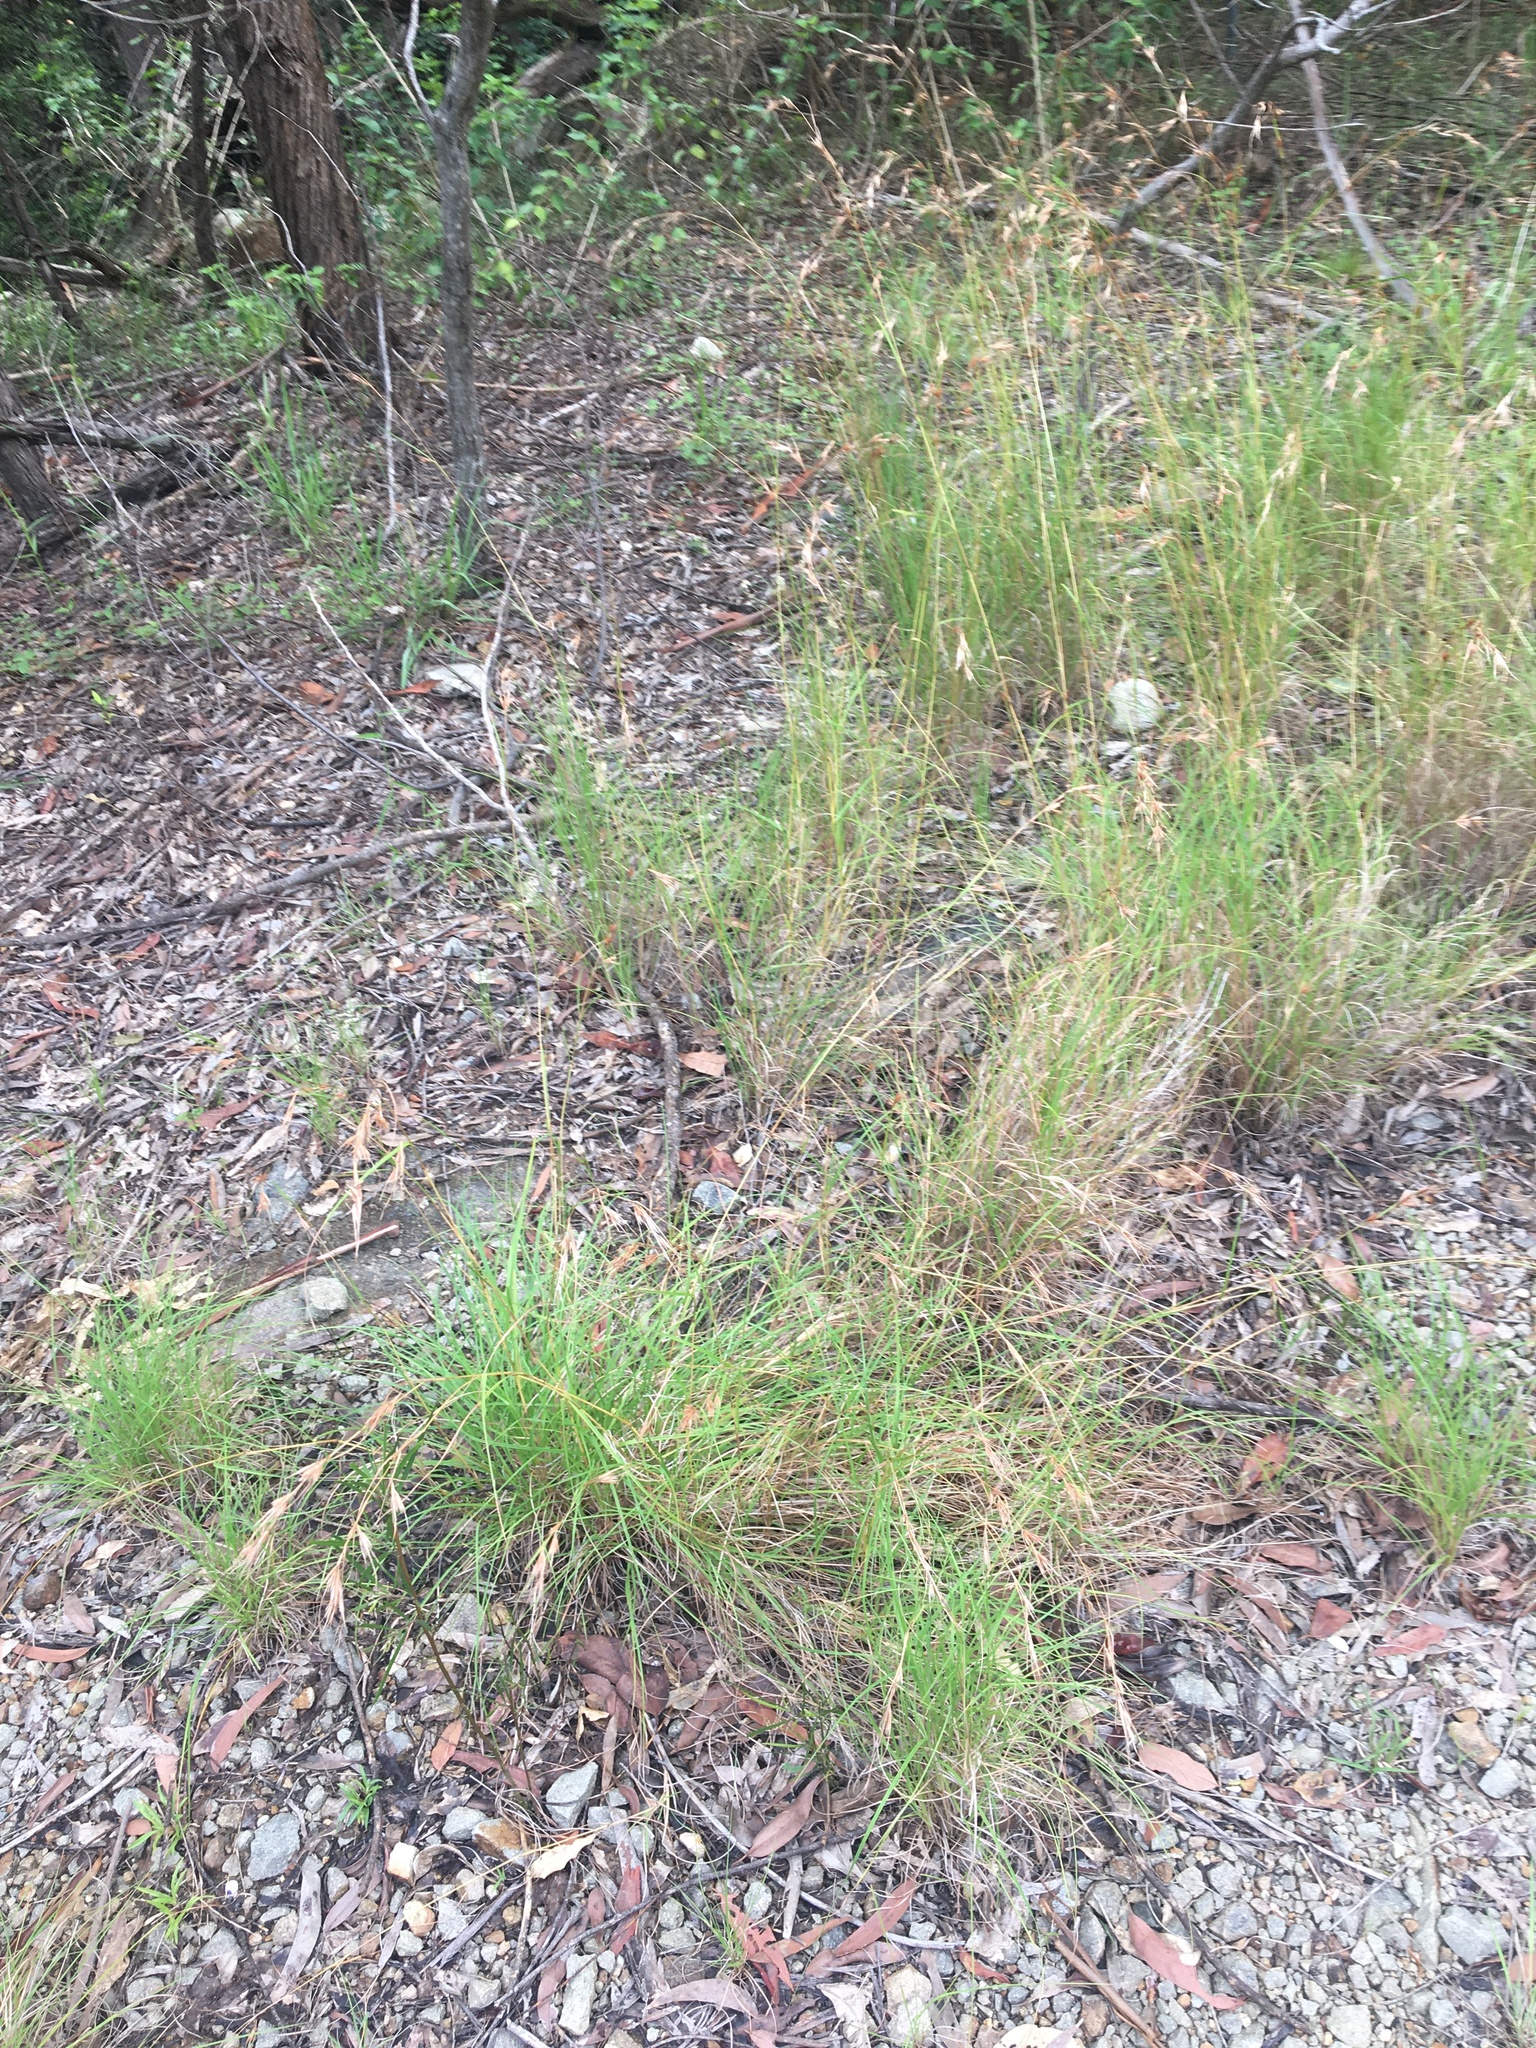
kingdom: Plantae
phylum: Tracheophyta
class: Liliopsida
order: Poales
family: Poaceae
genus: Themeda
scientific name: Themeda triandra
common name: Kangaroo grass
